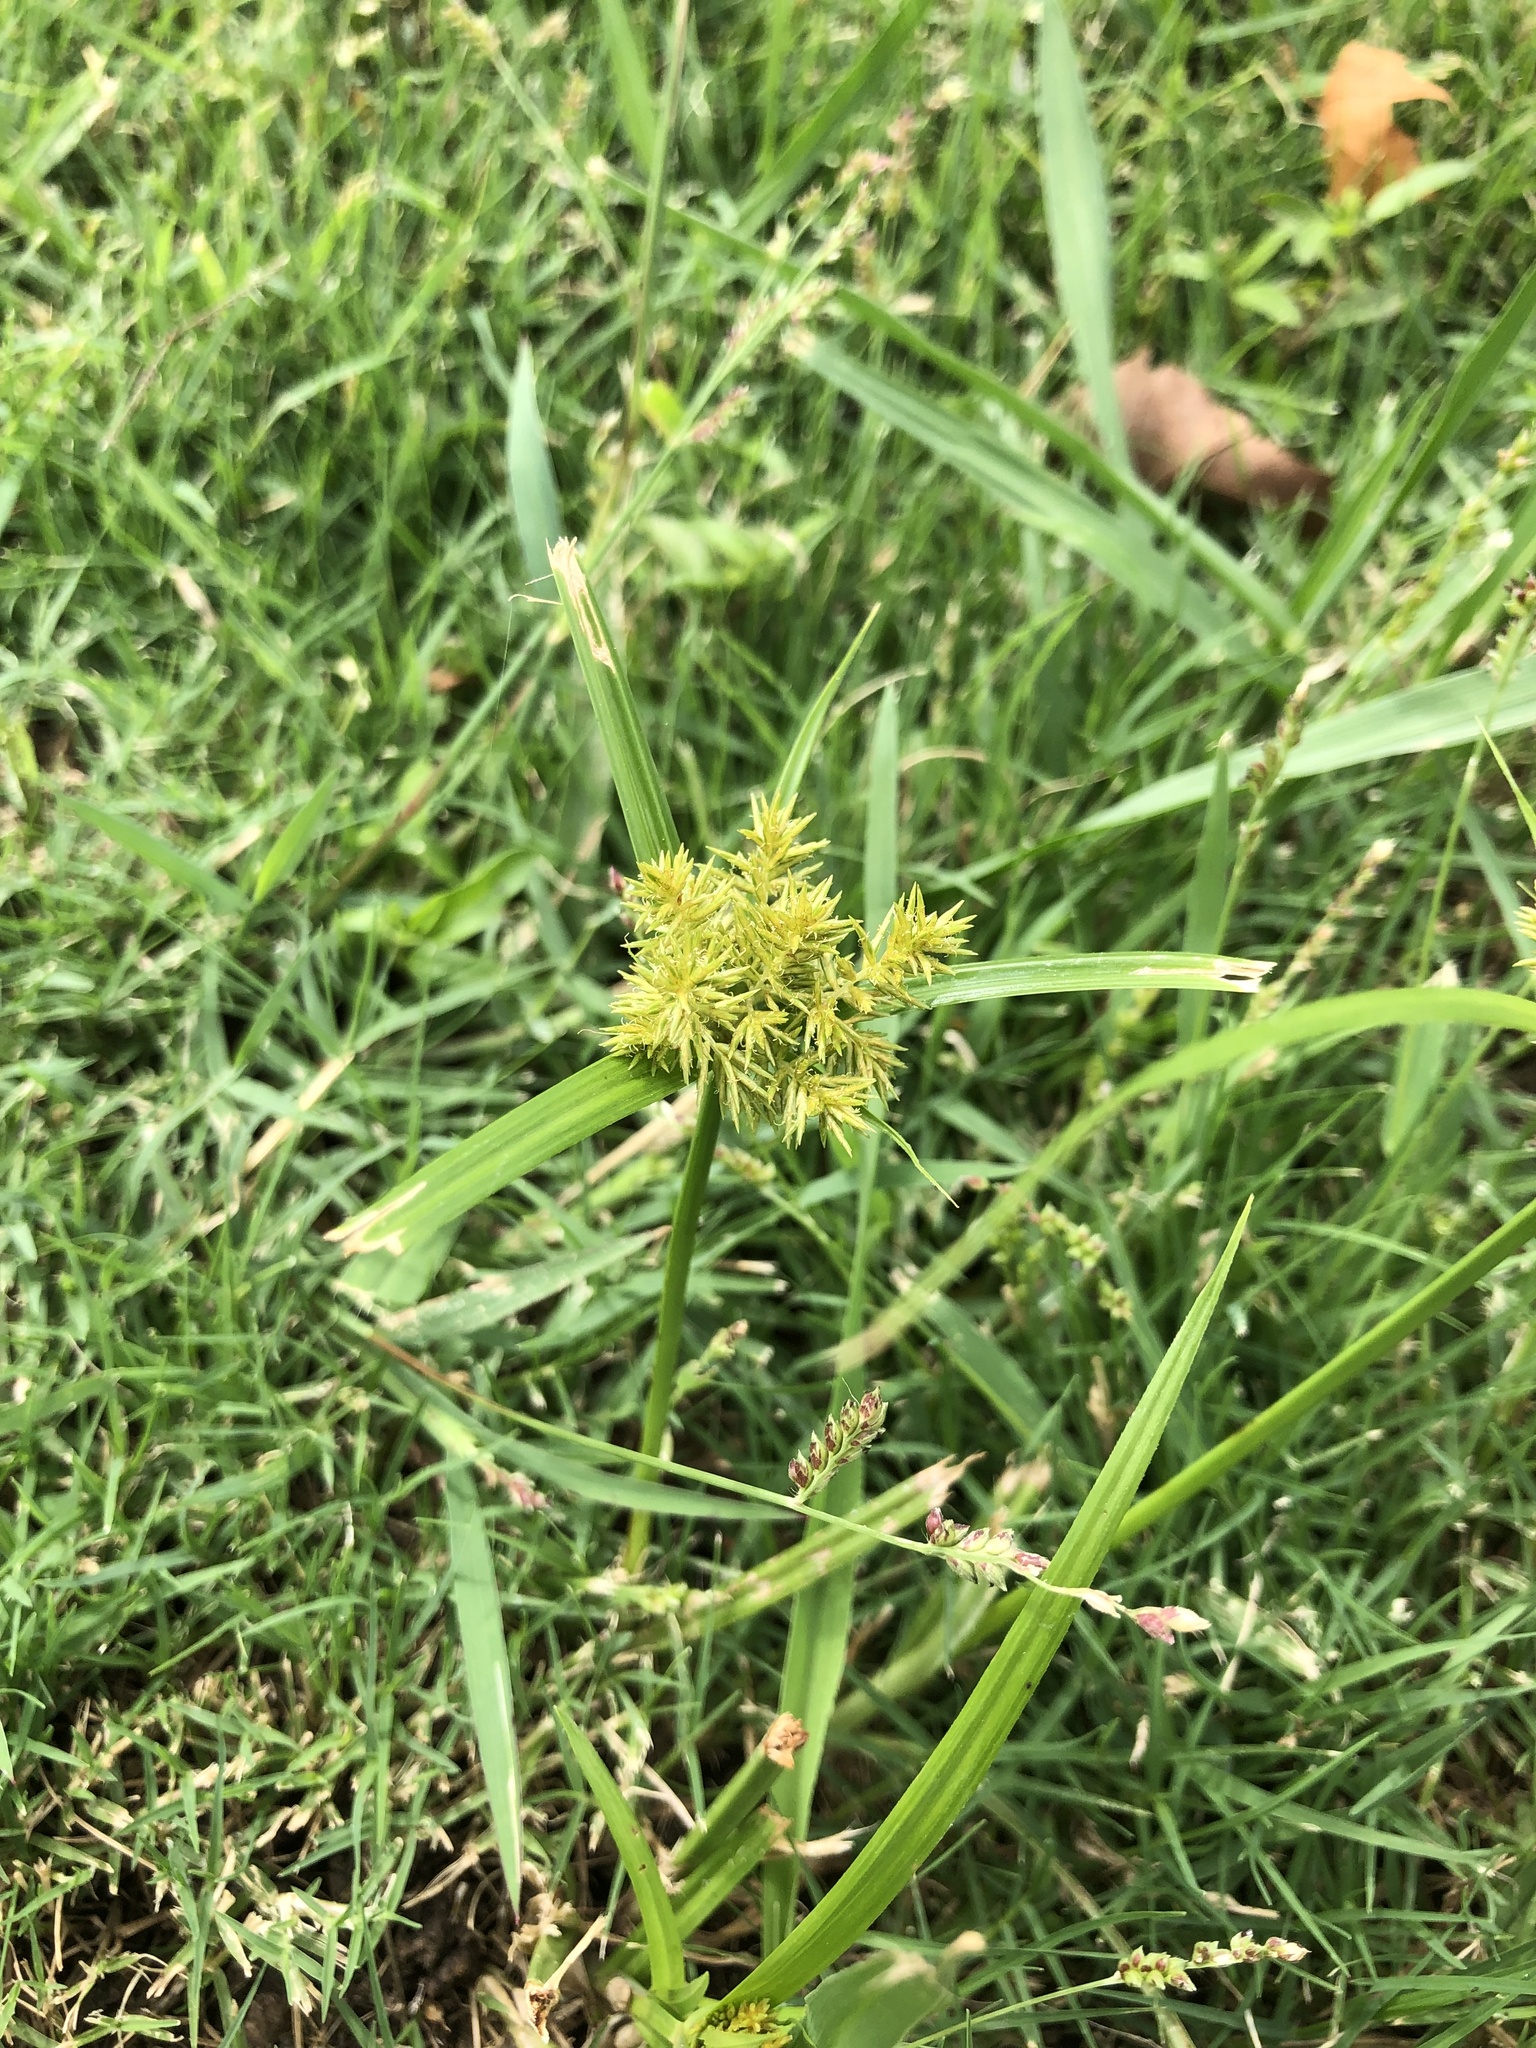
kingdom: Plantae
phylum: Tracheophyta
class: Liliopsida
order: Poales
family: Cyperaceae
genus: Cyperus
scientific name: Cyperus odoratus
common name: Fragrant flatsedge
